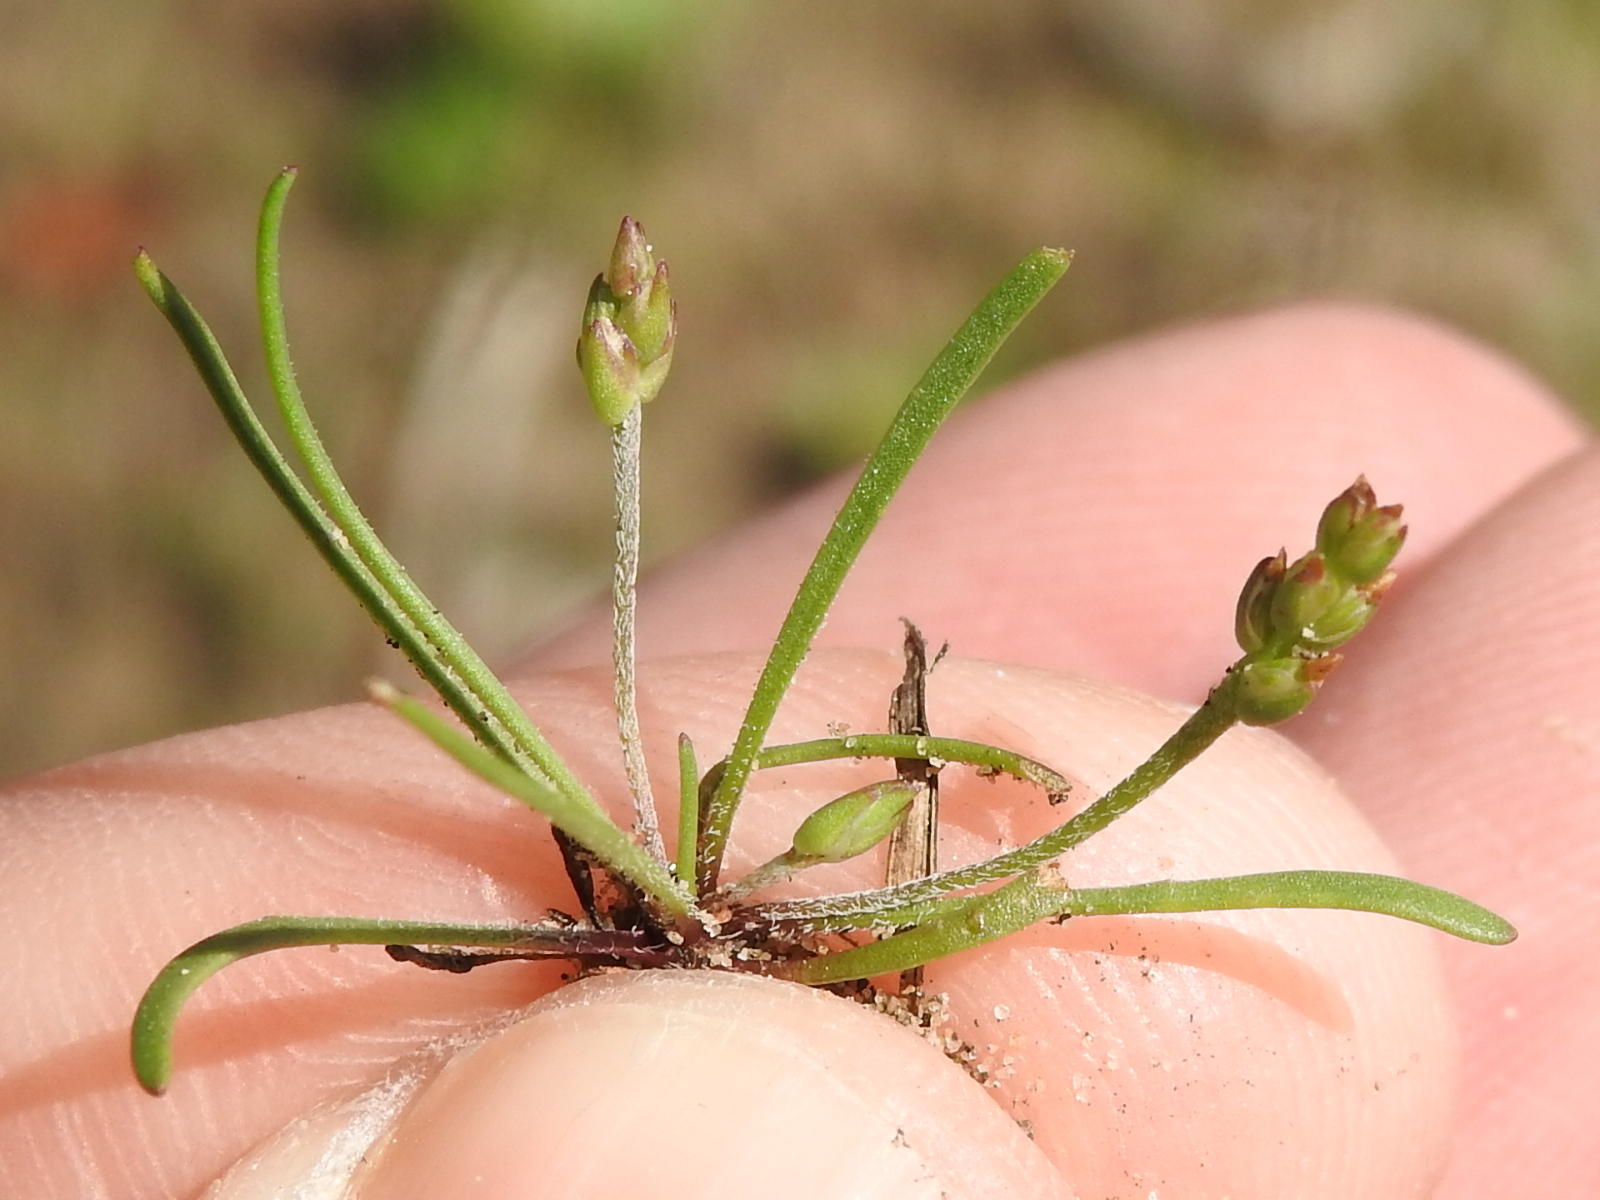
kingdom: Plantae
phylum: Tracheophyta
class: Magnoliopsida
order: Lamiales
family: Plantaginaceae
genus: Plantago
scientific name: Plantago heterophylla
